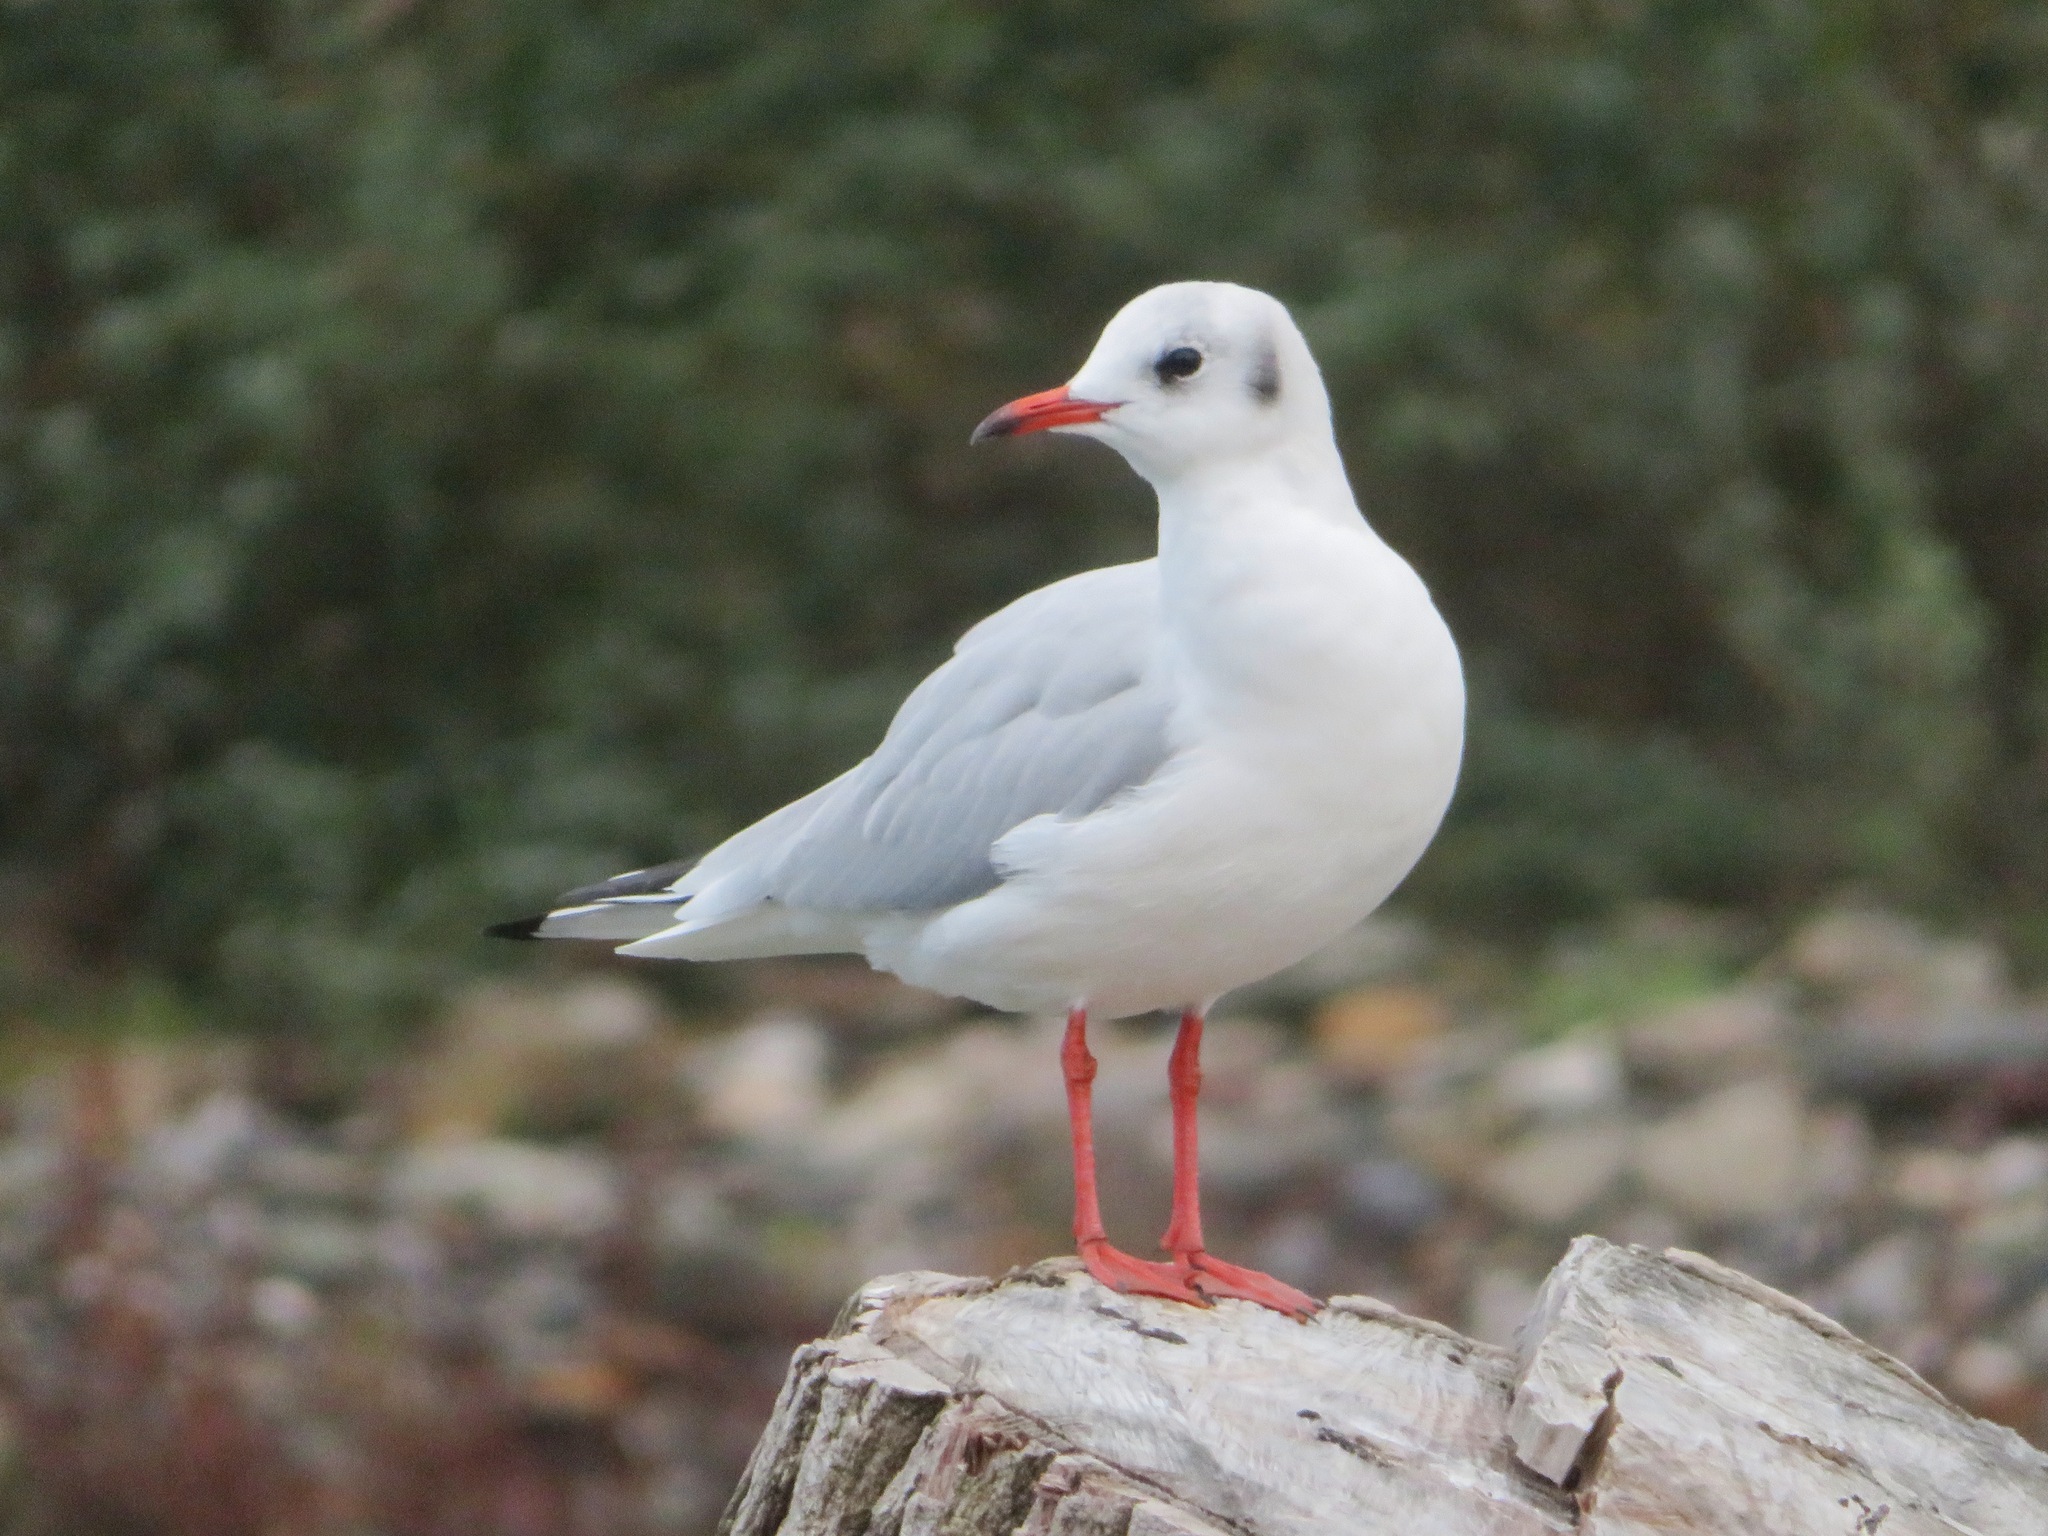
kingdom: Animalia
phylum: Chordata
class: Aves
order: Charadriiformes
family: Laridae
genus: Chroicocephalus
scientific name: Chroicocephalus ridibundus
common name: Black-headed gull
